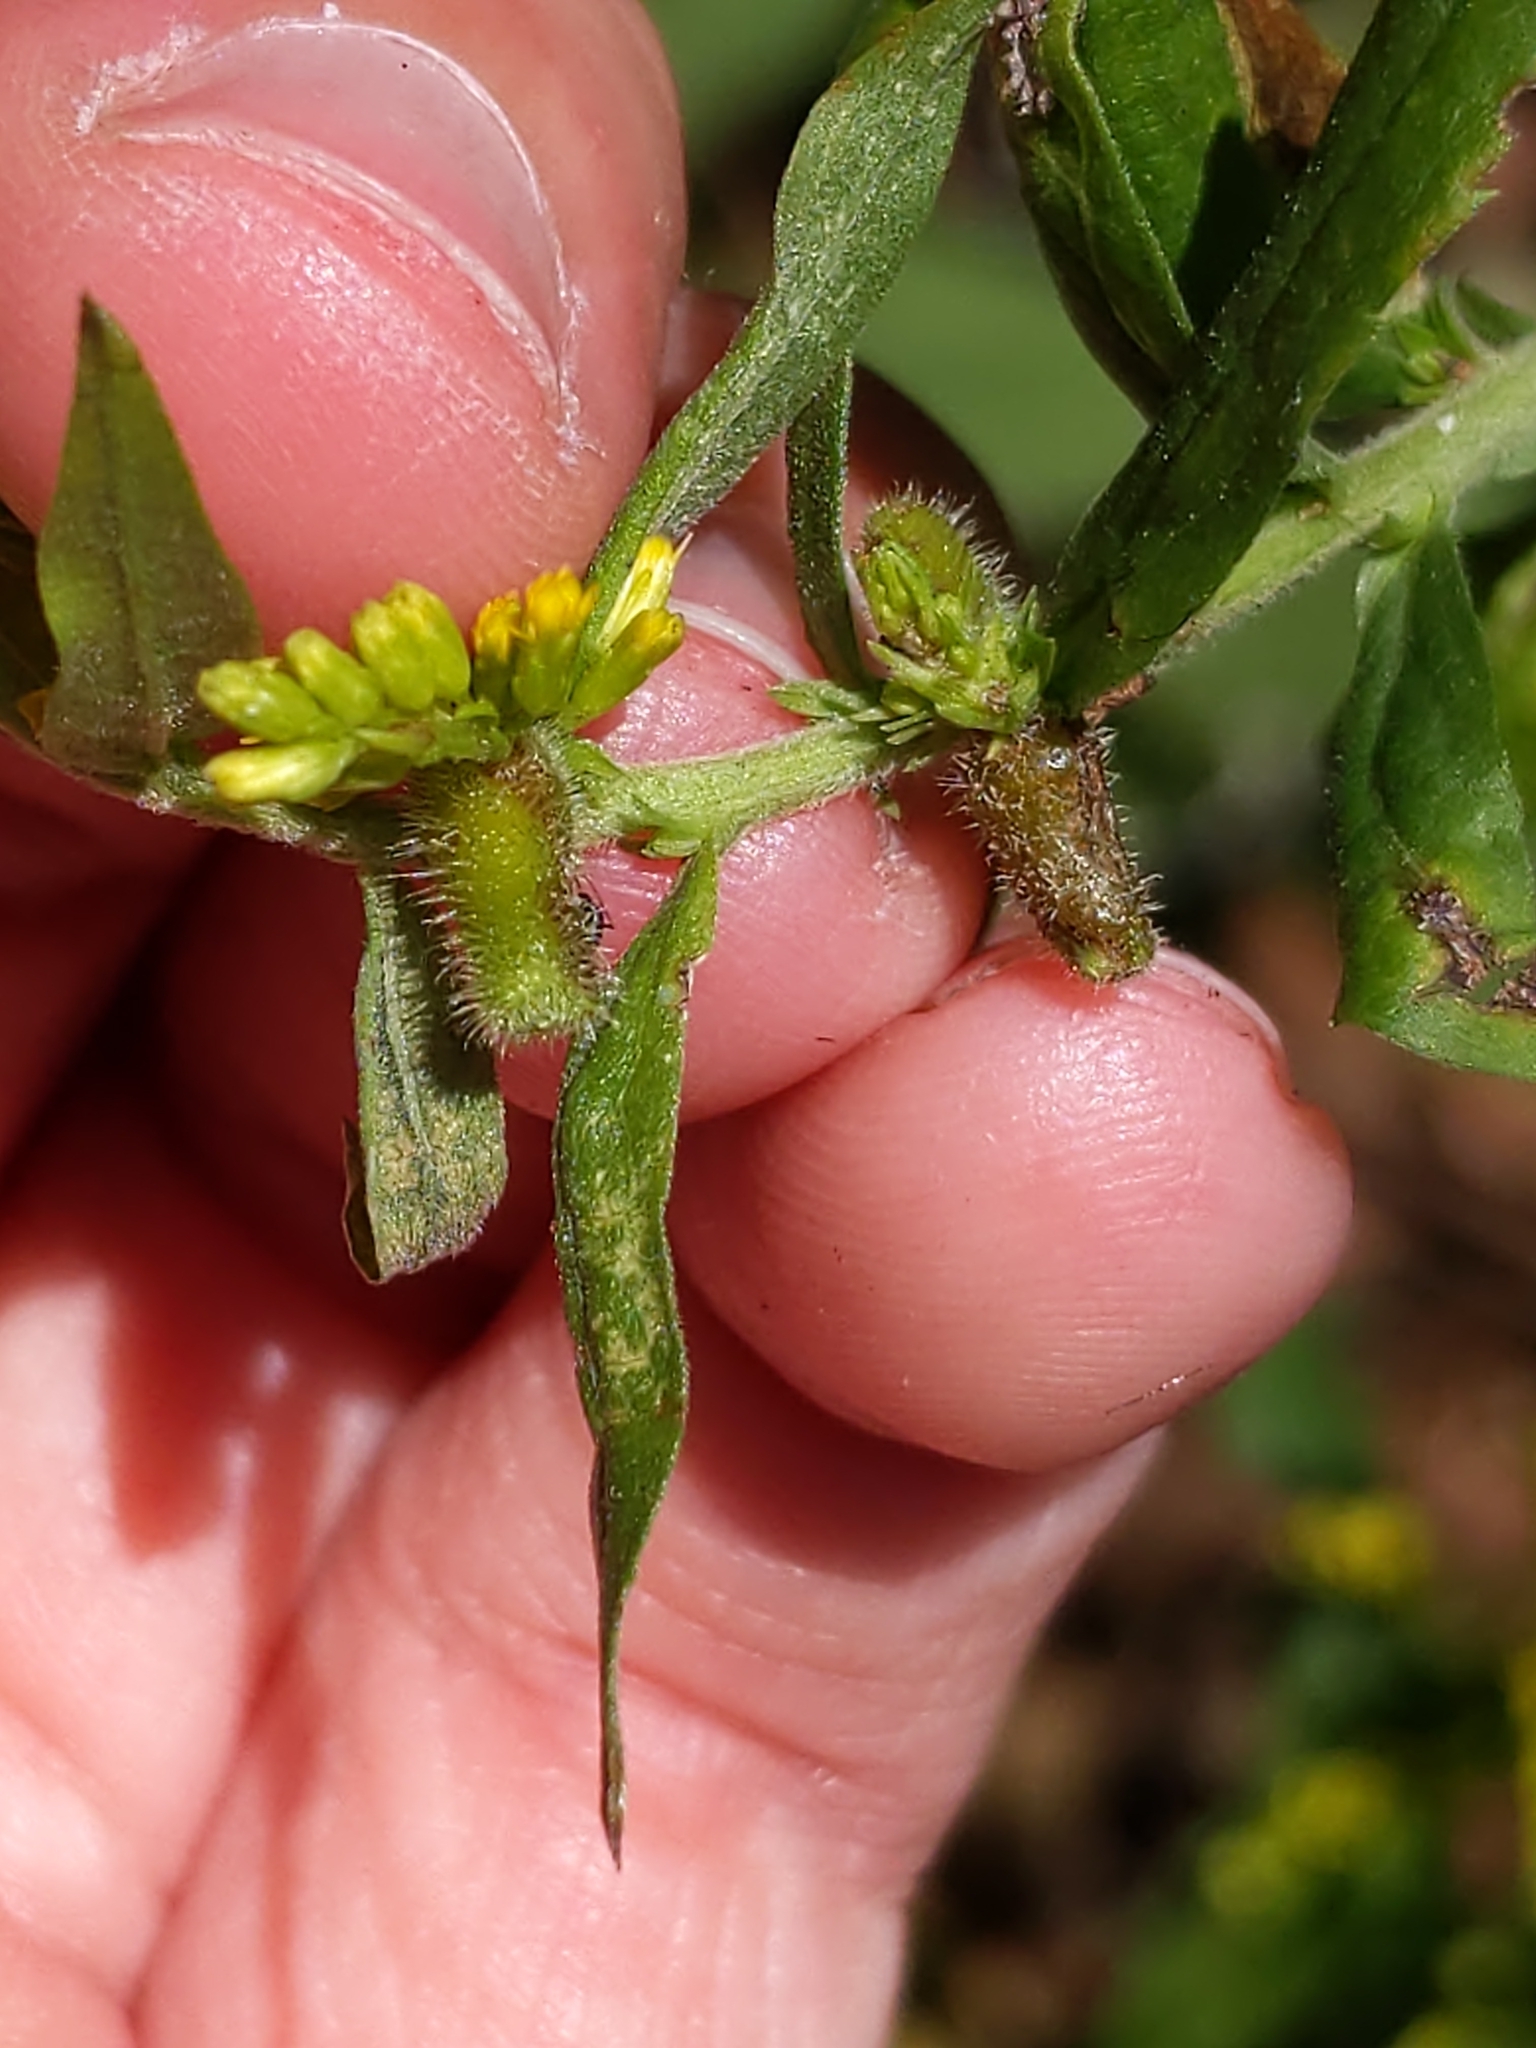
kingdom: Animalia
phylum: Arthropoda
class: Insecta
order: Diptera
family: Cecidomyiidae
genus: Rhopalomyia
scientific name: Rhopalomyia anthophila
